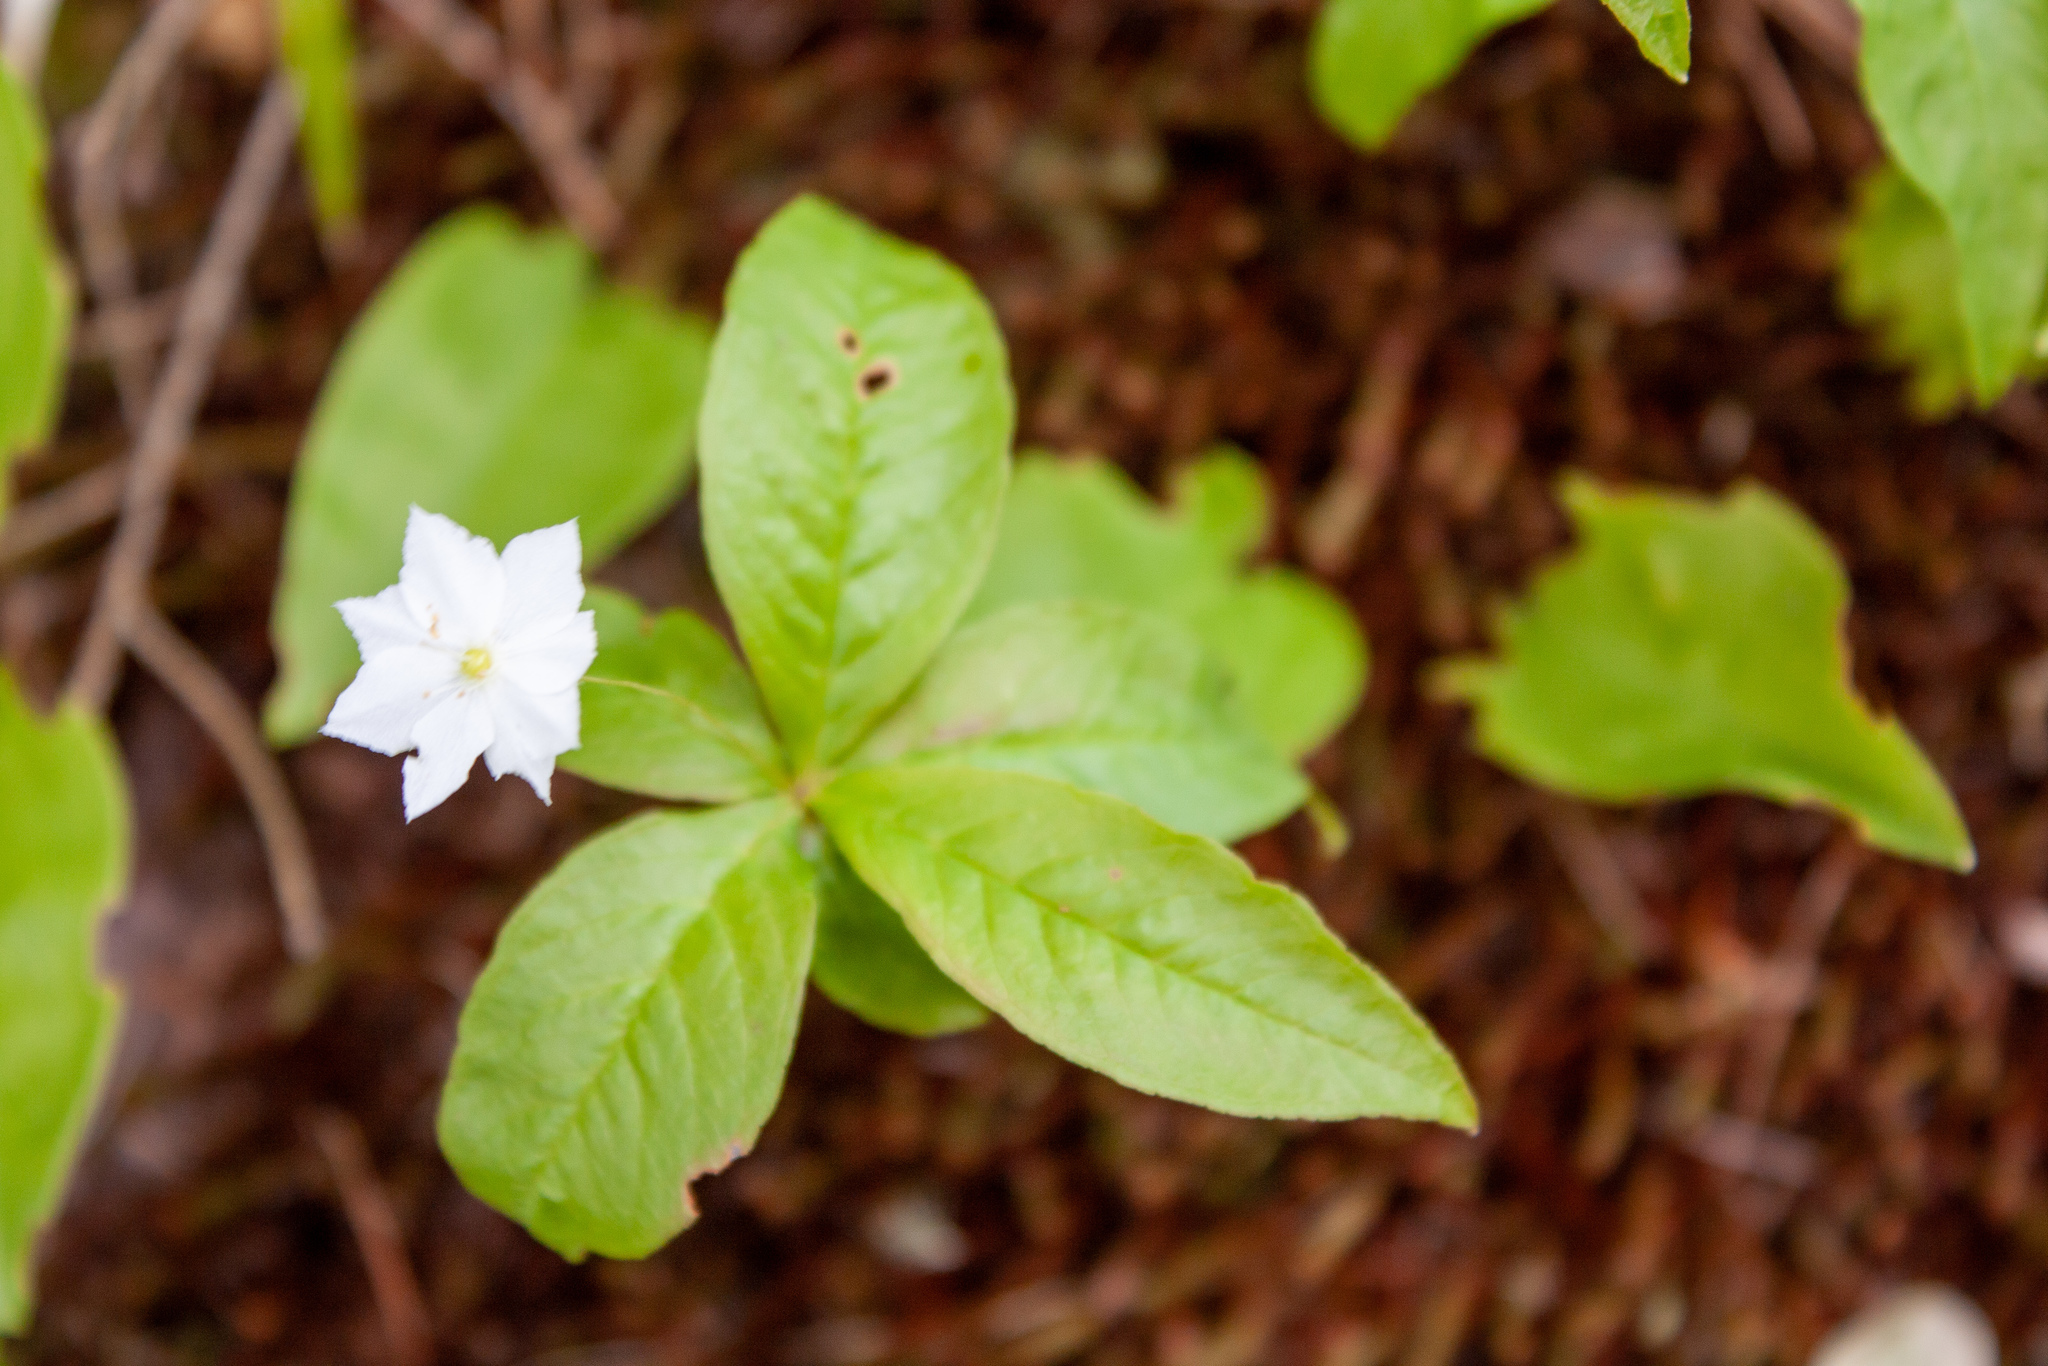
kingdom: Plantae
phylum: Tracheophyta
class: Magnoliopsida
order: Ericales
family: Primulaceae
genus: Lysimachia
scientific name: Lysimachia borealis
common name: American starflower
